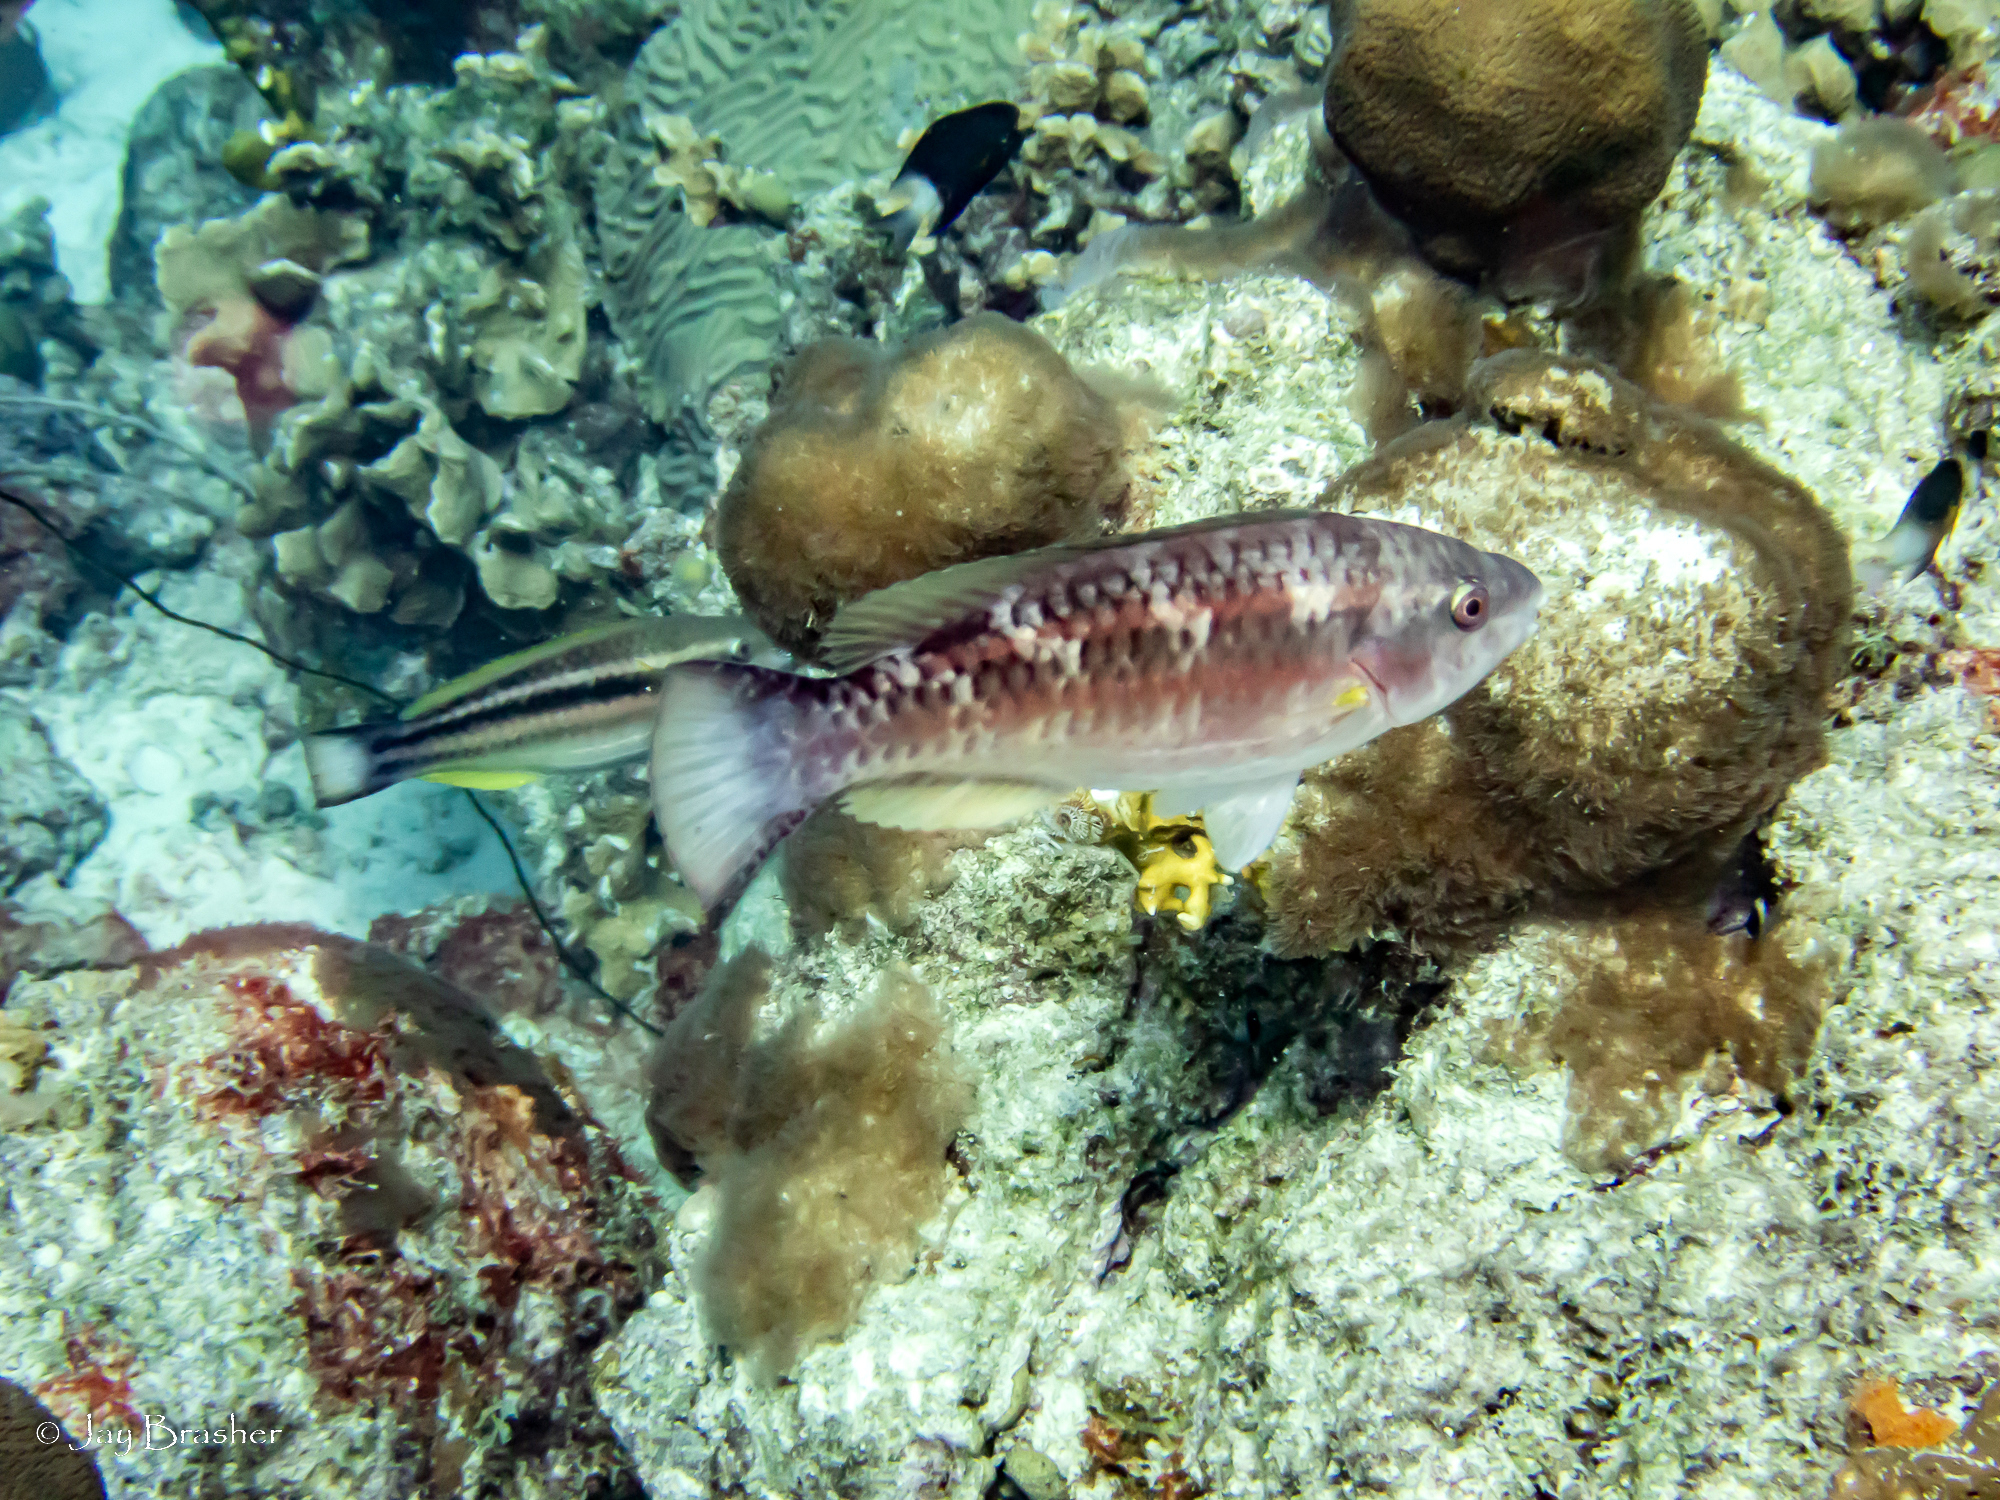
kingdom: Animalia
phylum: Chordata
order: Perciformes
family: Pomacentridae
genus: Stegastes
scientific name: Stegastes partitus
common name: Bicolor damselfish
